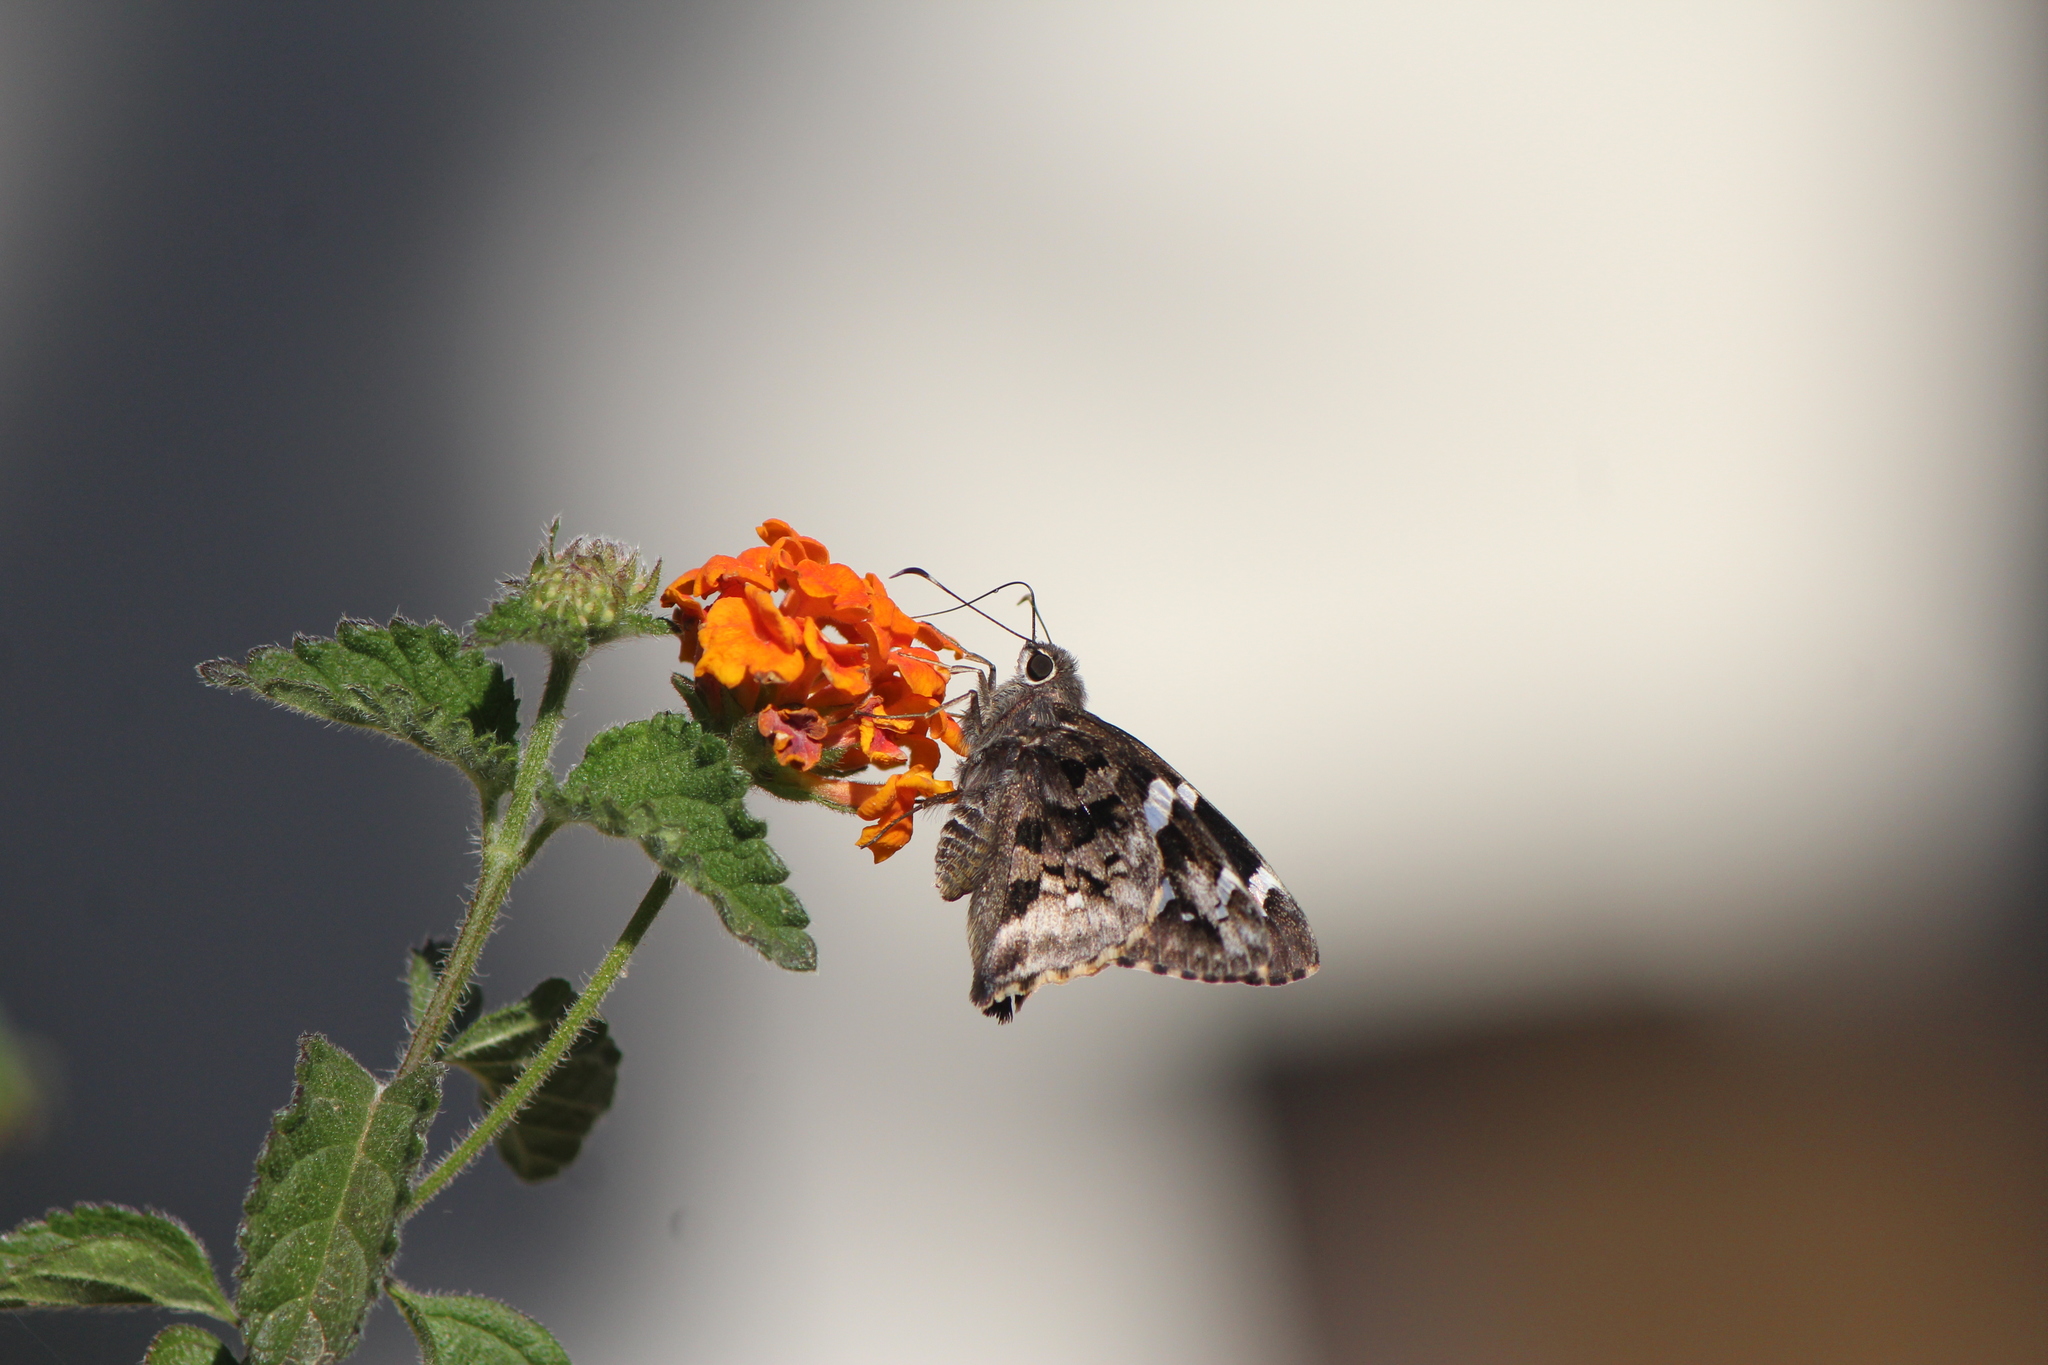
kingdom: Animalia
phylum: Arthropoda
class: Insecta
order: Lepidoptera
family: Hesperiidae
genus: Codatractus
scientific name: Codatractus bryaxis
